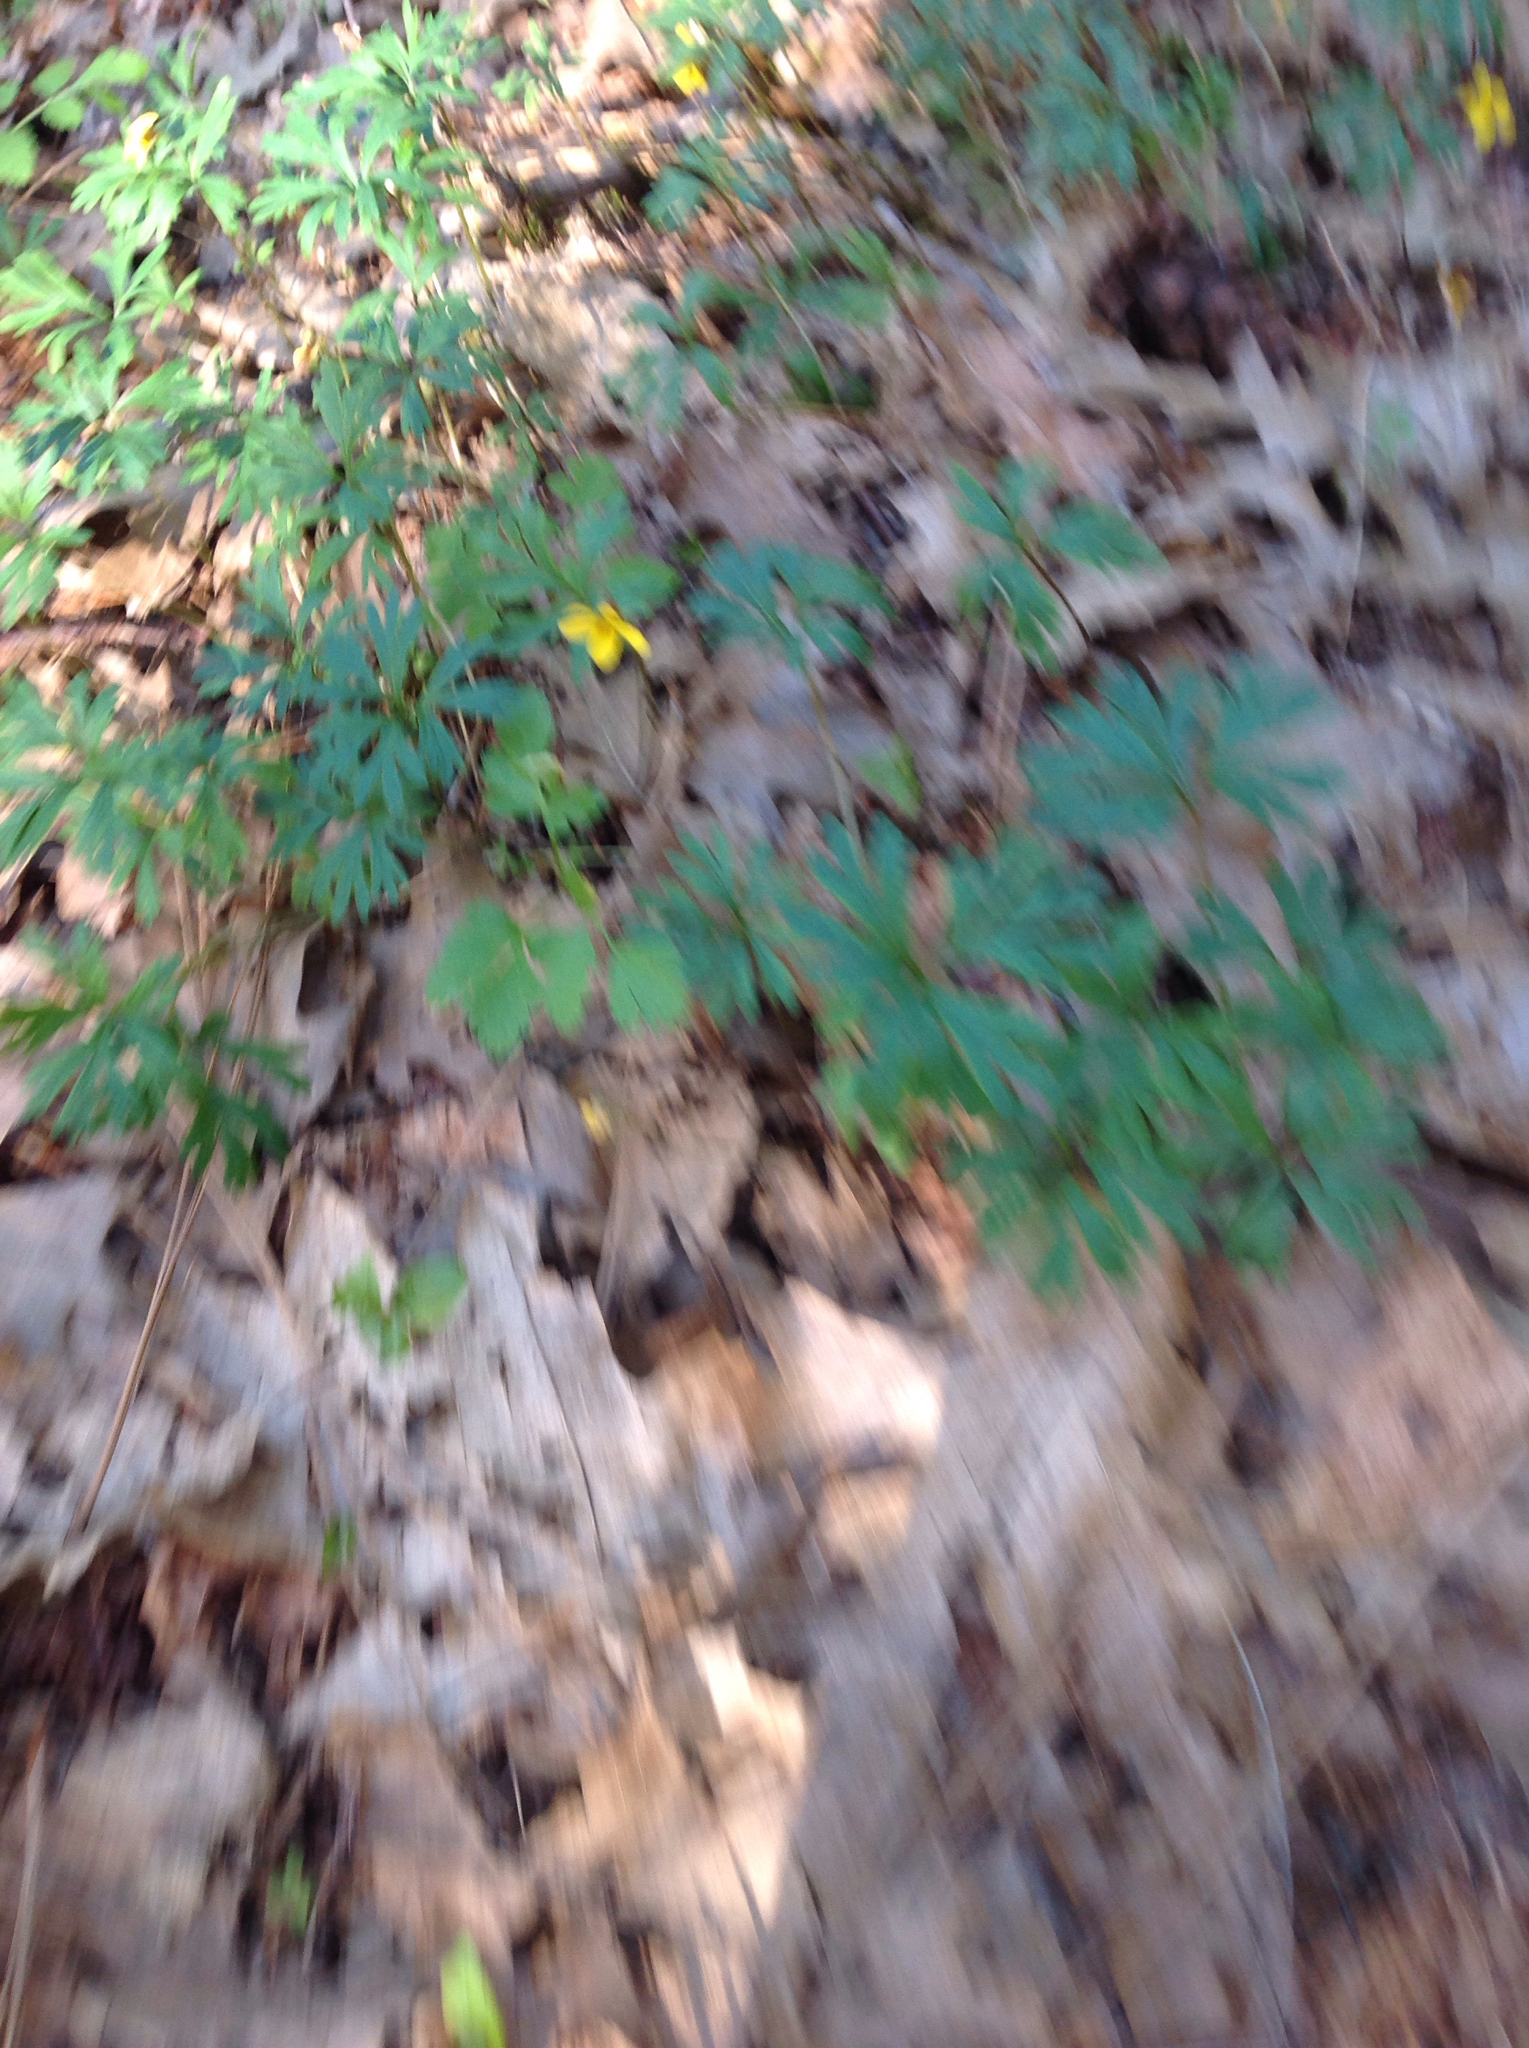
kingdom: Plantae
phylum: Tracheophyta
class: Magnoliopsida
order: Malpighiales
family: Violaceae
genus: Viola
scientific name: Viola sheltonii
